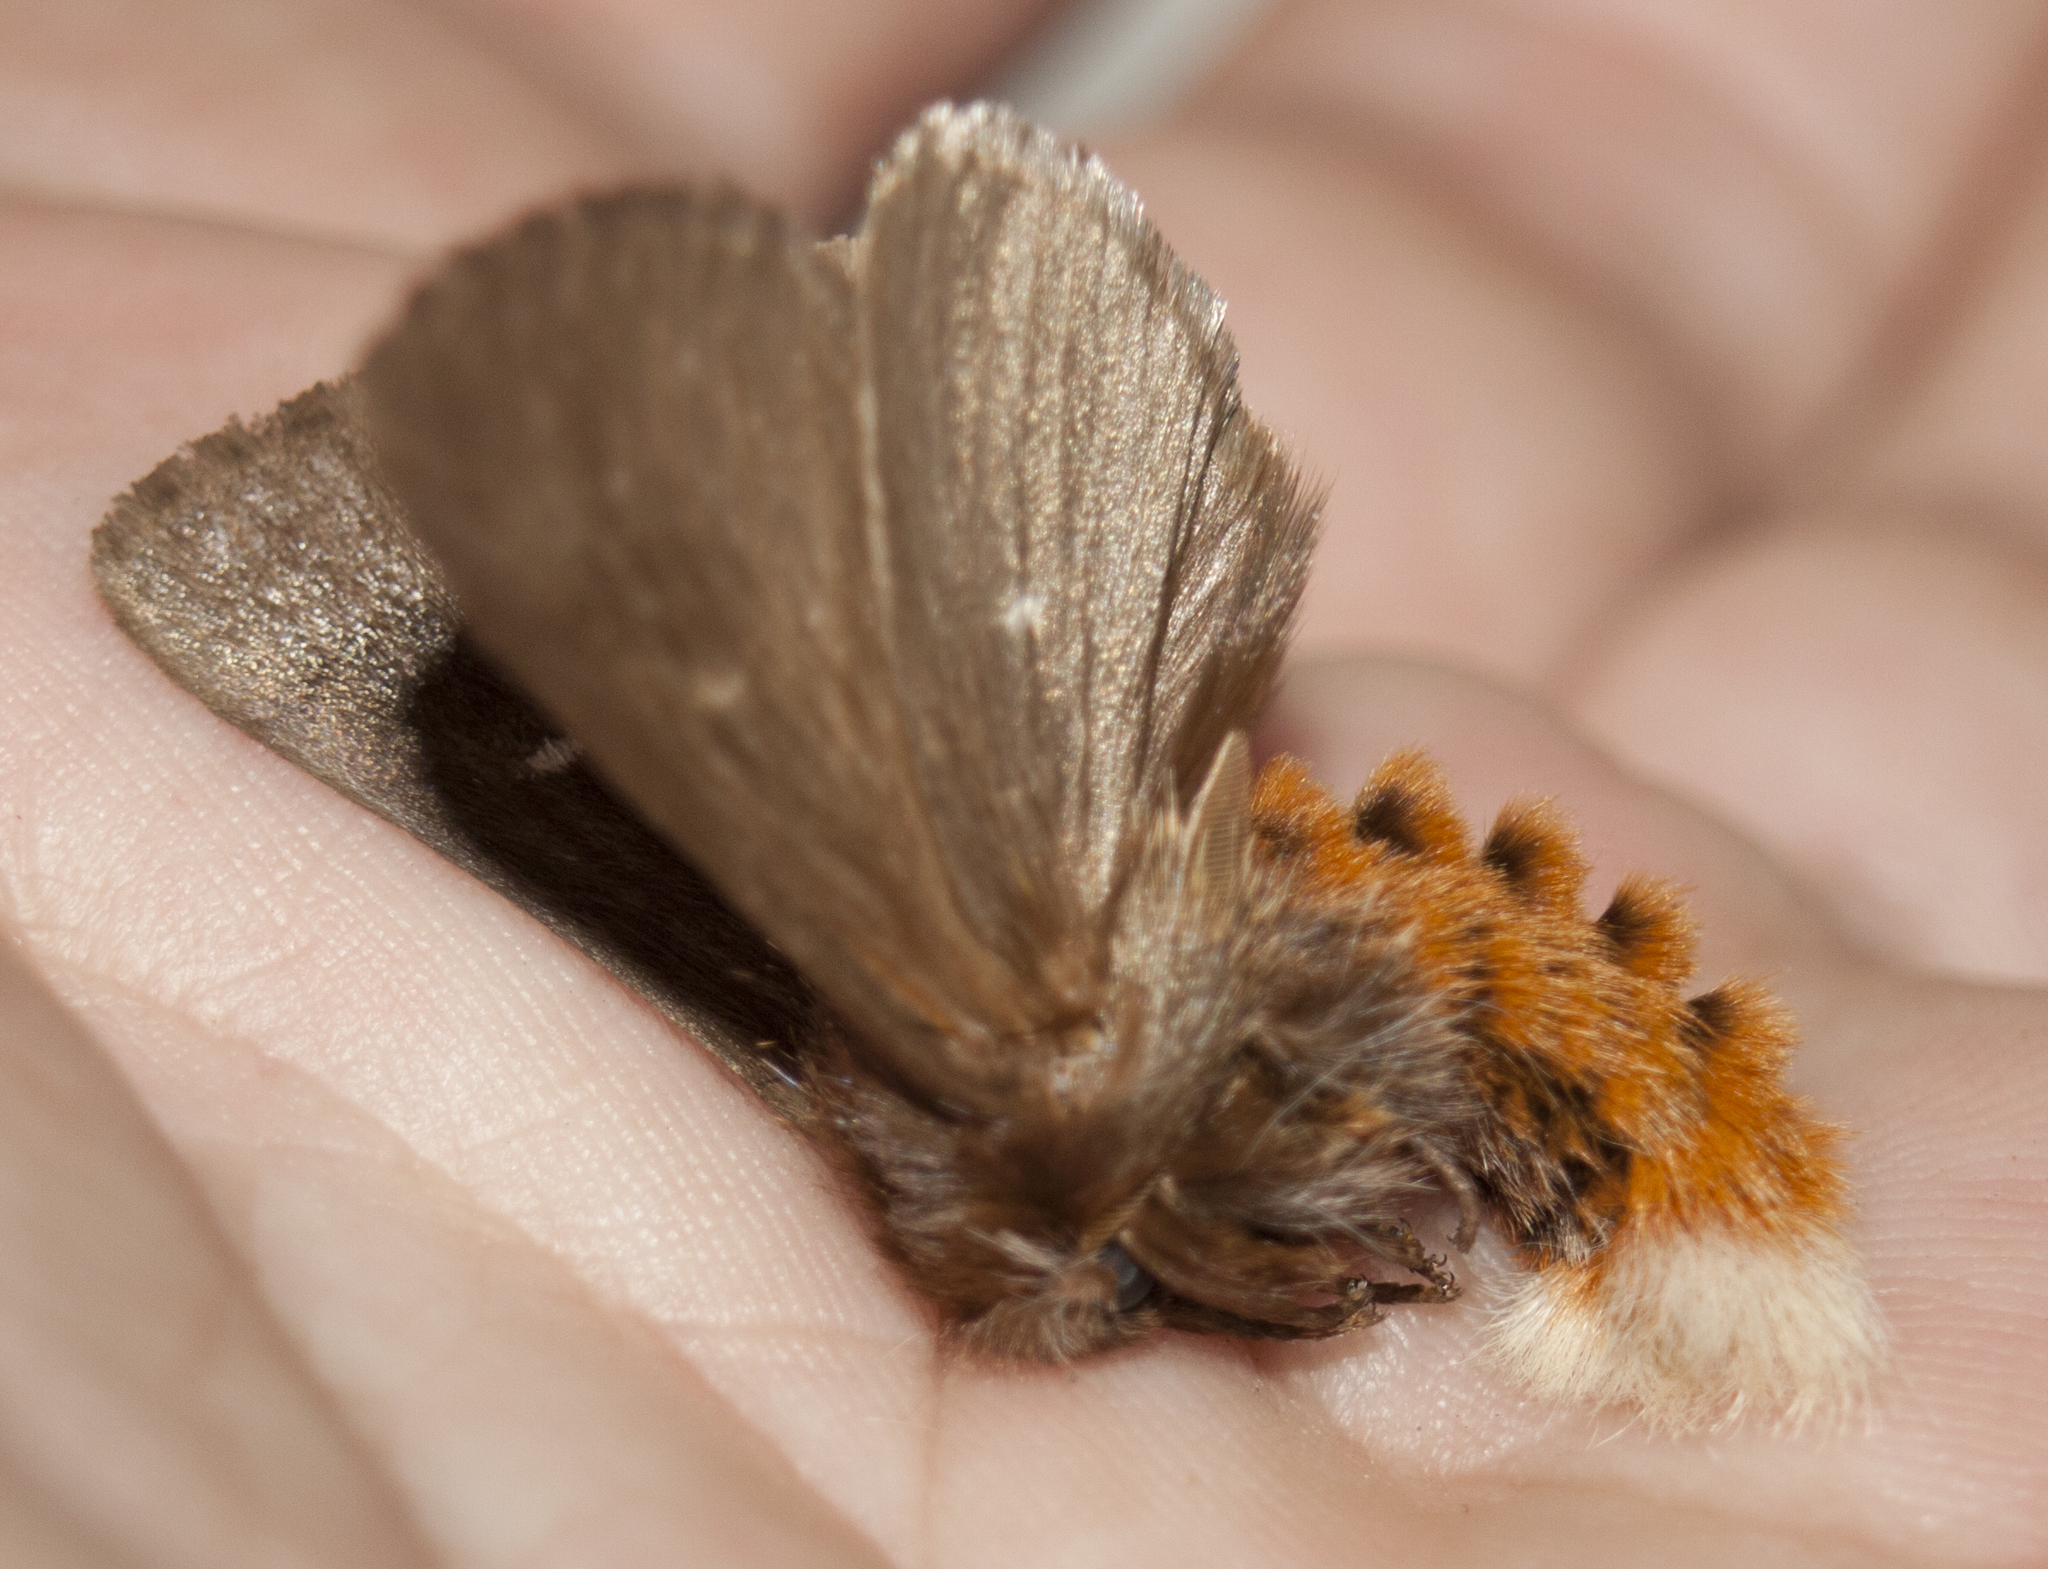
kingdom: Animalia
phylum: Arthropoda
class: Insecta
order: Lepidoptera
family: Notodontidae
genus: Ochrogaster
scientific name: Ochrogaster lunifer
